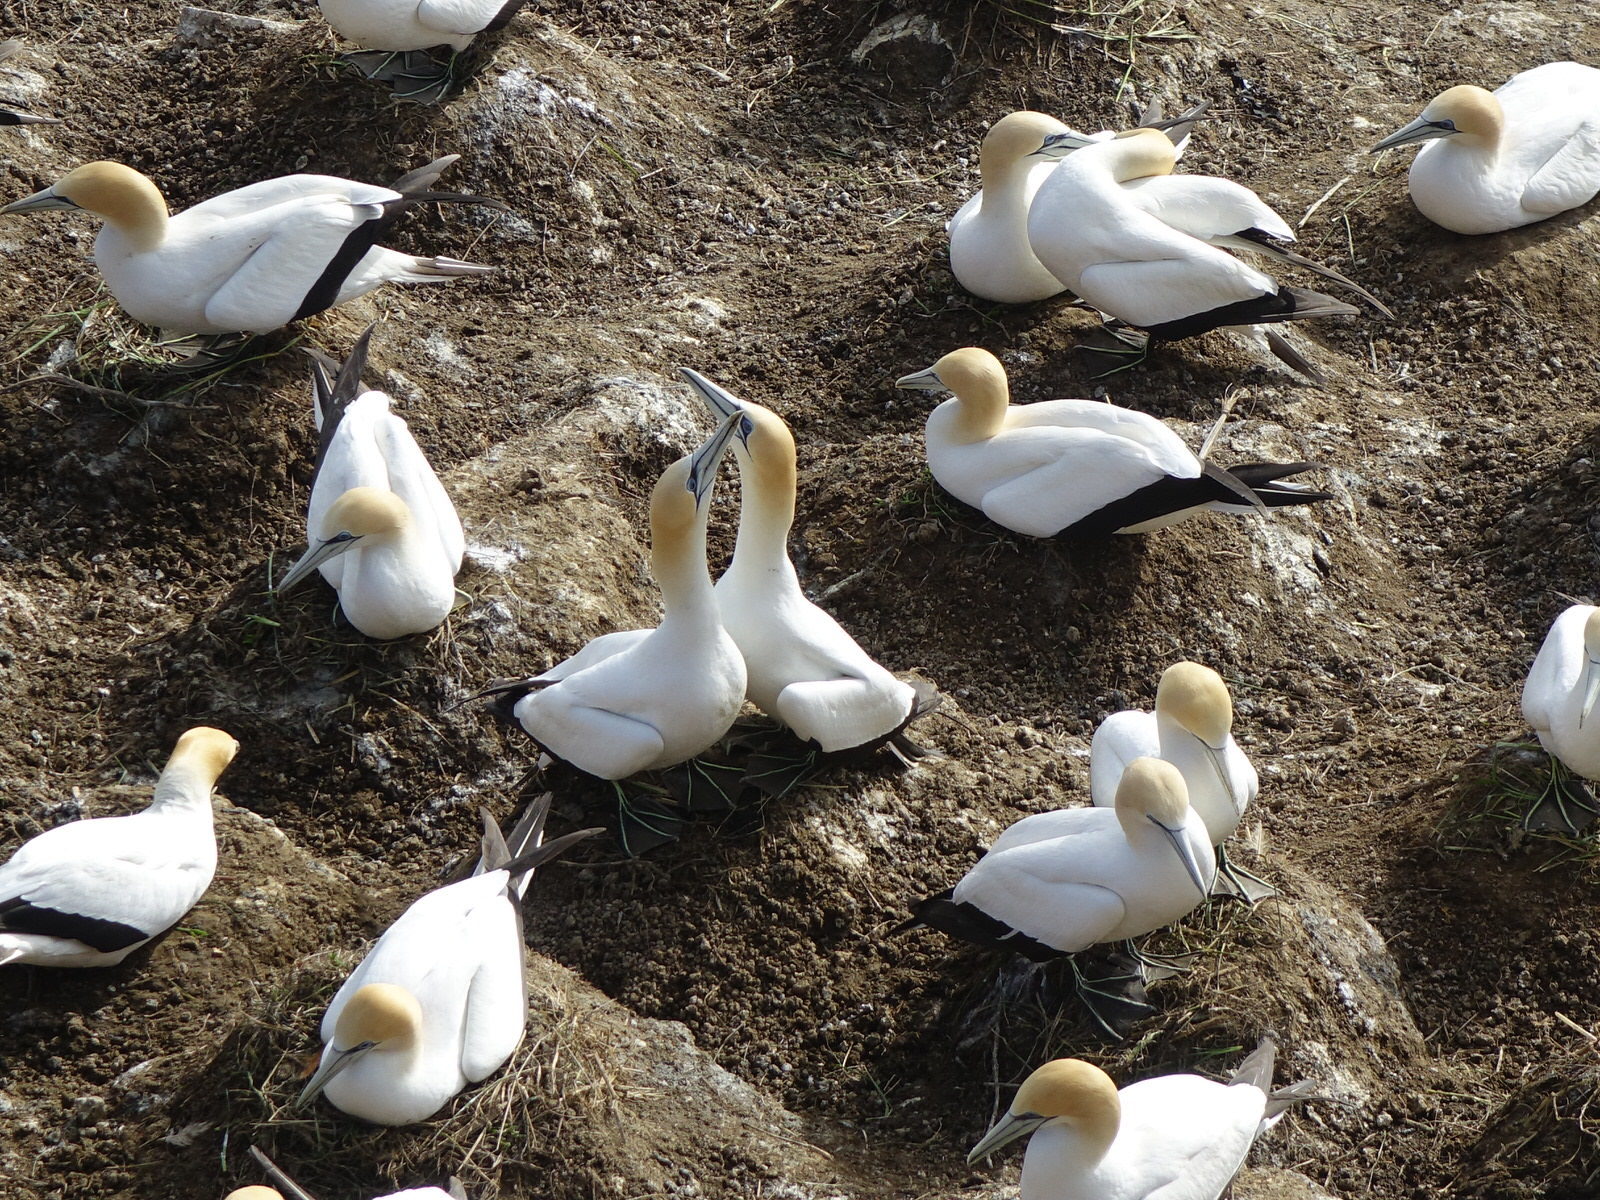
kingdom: Animalia
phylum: Chordata
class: Aves
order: Suliformes
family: Sulidae
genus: Morus
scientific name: Morus serrator
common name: Australasian gannet
